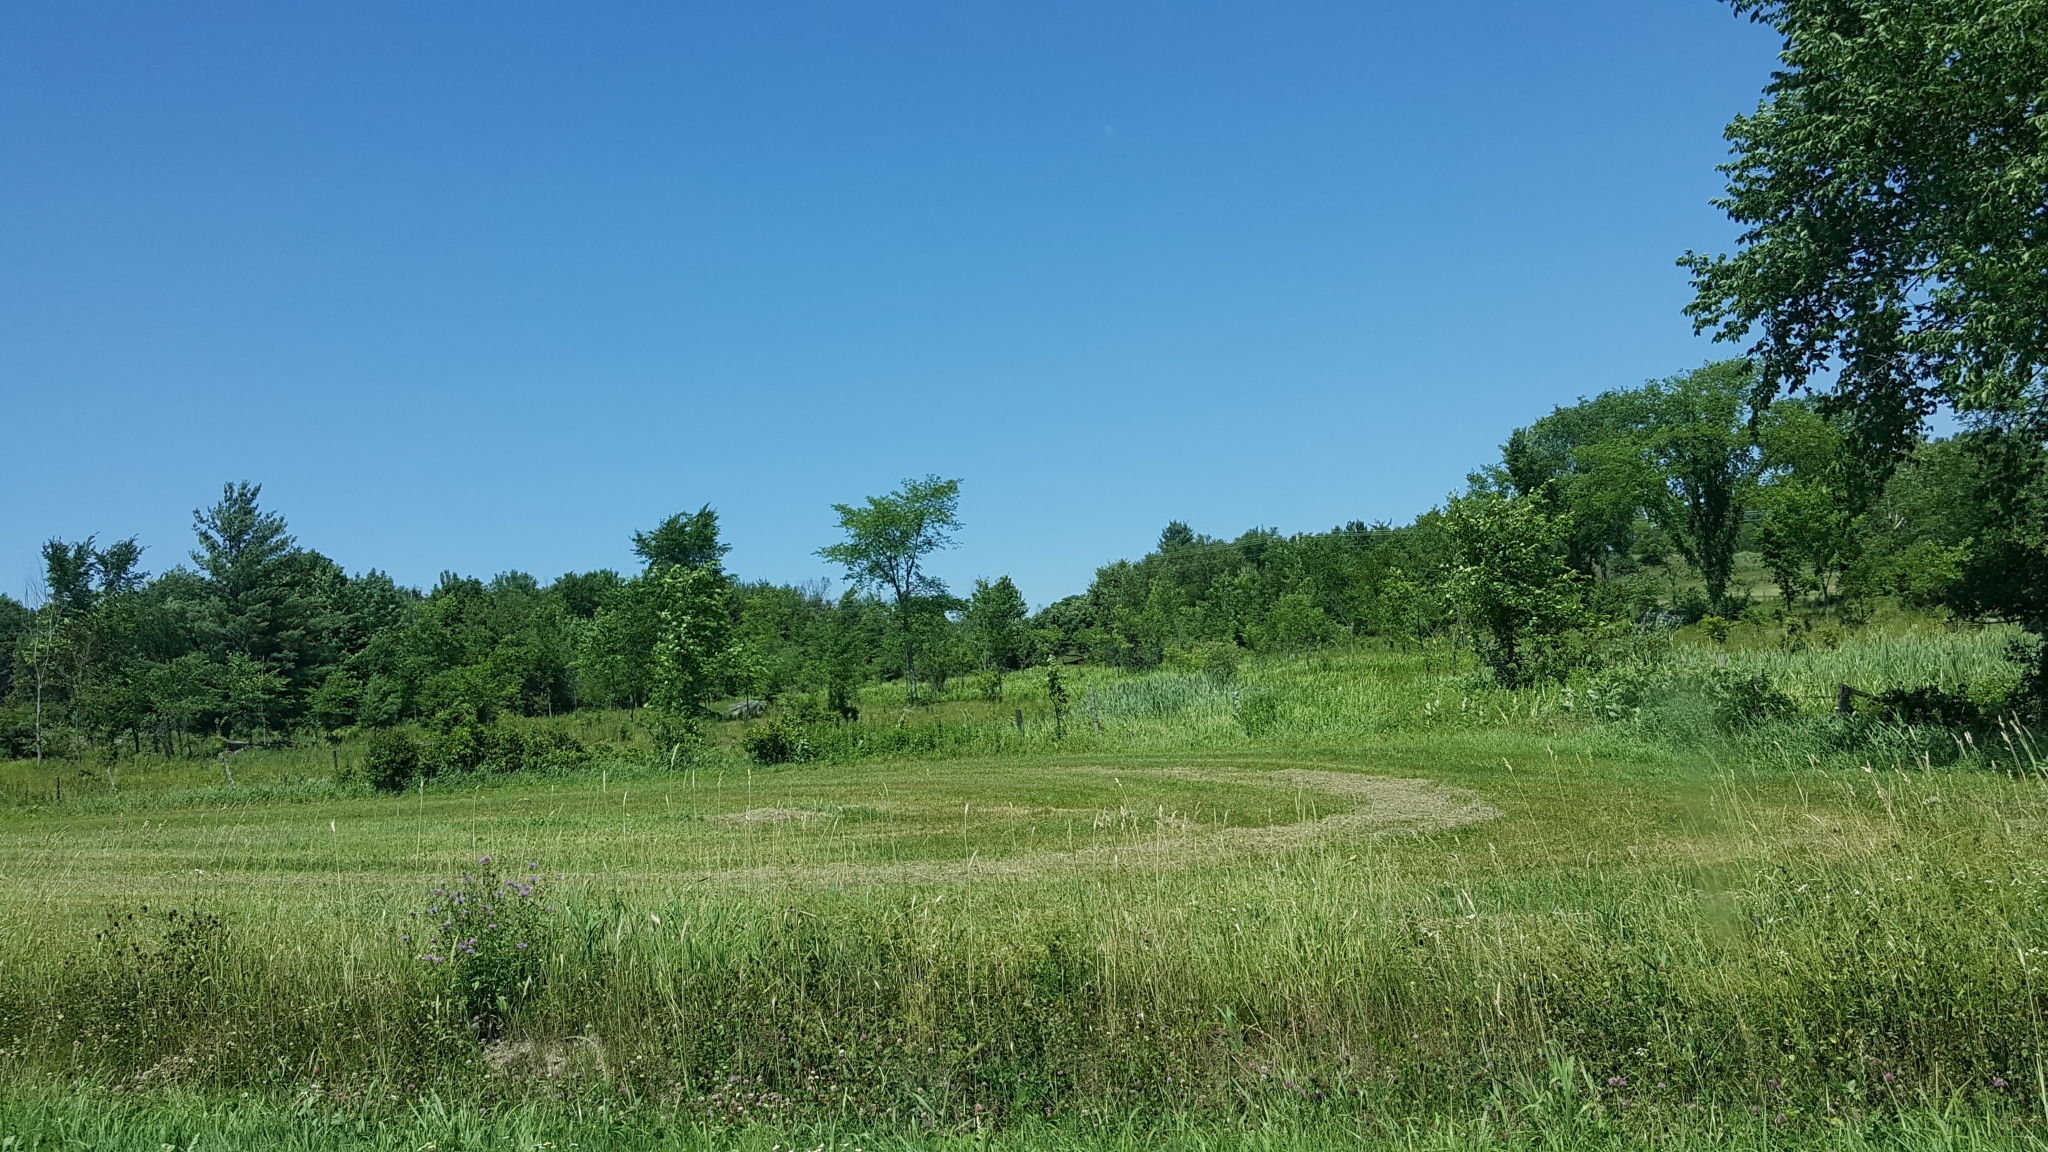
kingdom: Plantae
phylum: Tracheophyta
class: Magnoliopsida
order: Rosales
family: Ulmaceae
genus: Ulmus
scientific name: Ulmus americana
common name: American elm
